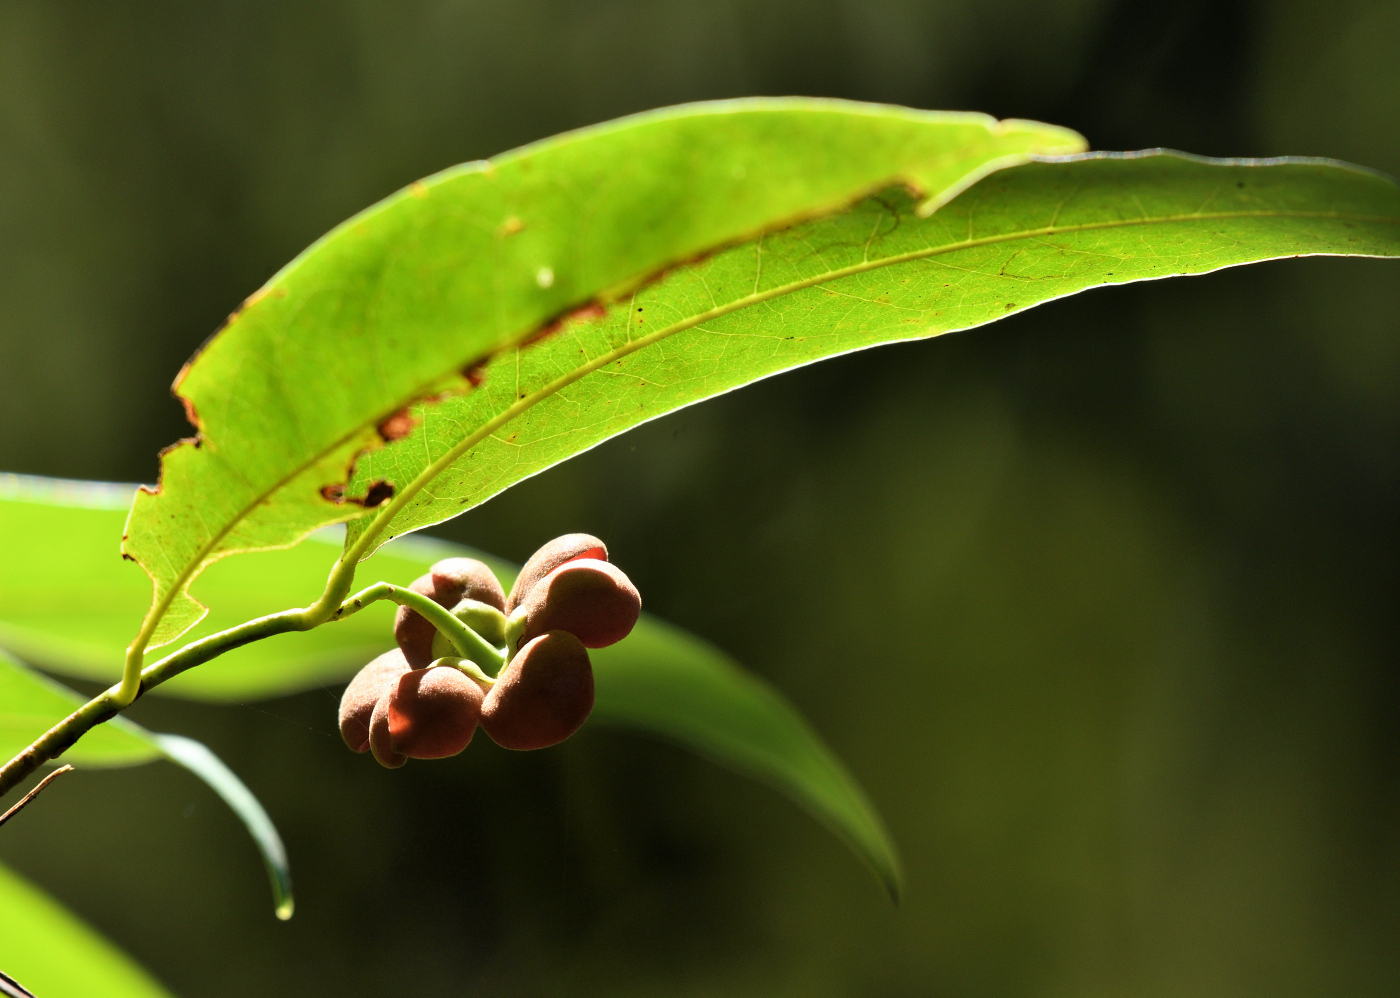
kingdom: Plantae
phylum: Tracheophyta
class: Magnoliopsida
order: Magnoliales
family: Annonaceae
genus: Uvaria
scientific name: Uvaria narum
